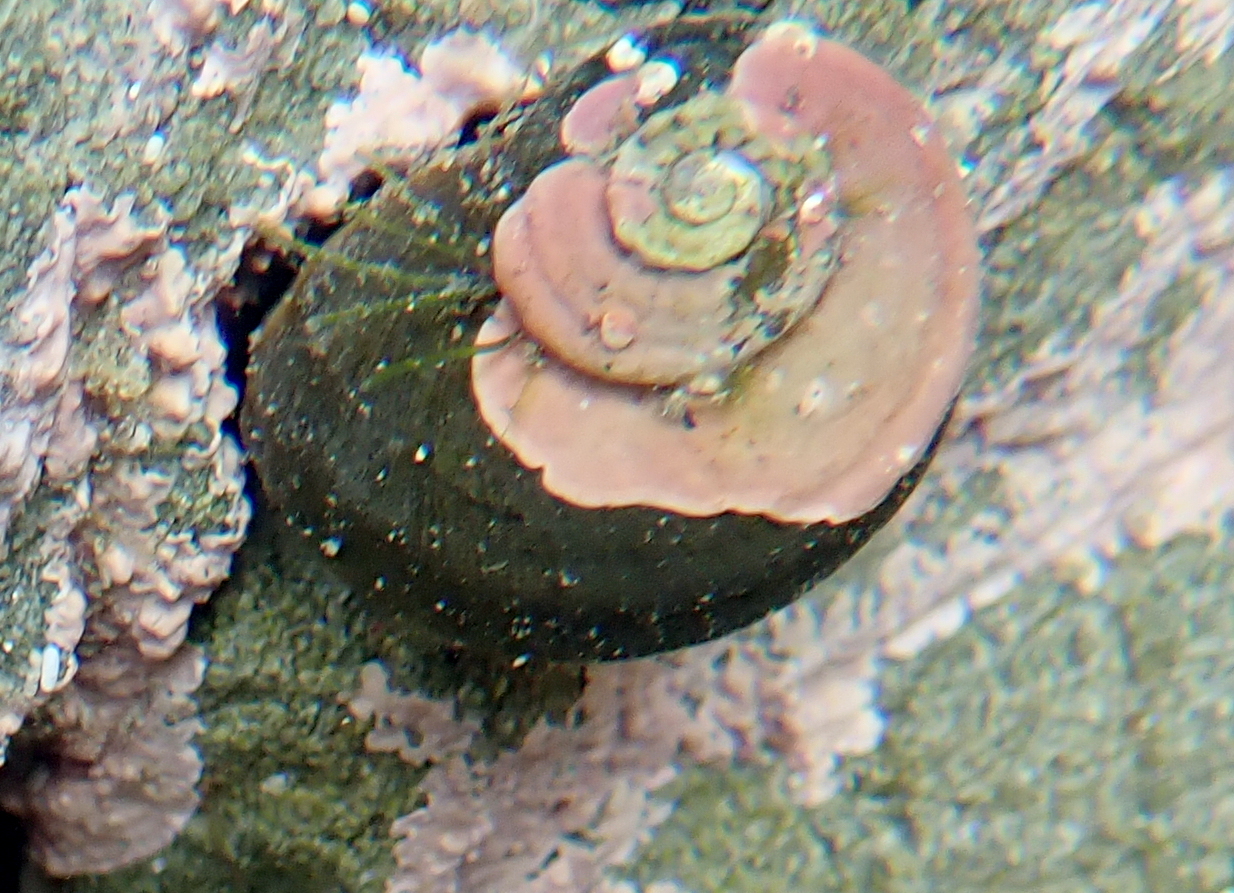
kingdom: Animalia
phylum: Mollusca
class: Gastropoda
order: Trochida
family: Turbinidae
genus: Lunella
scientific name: Lunella smaragda
